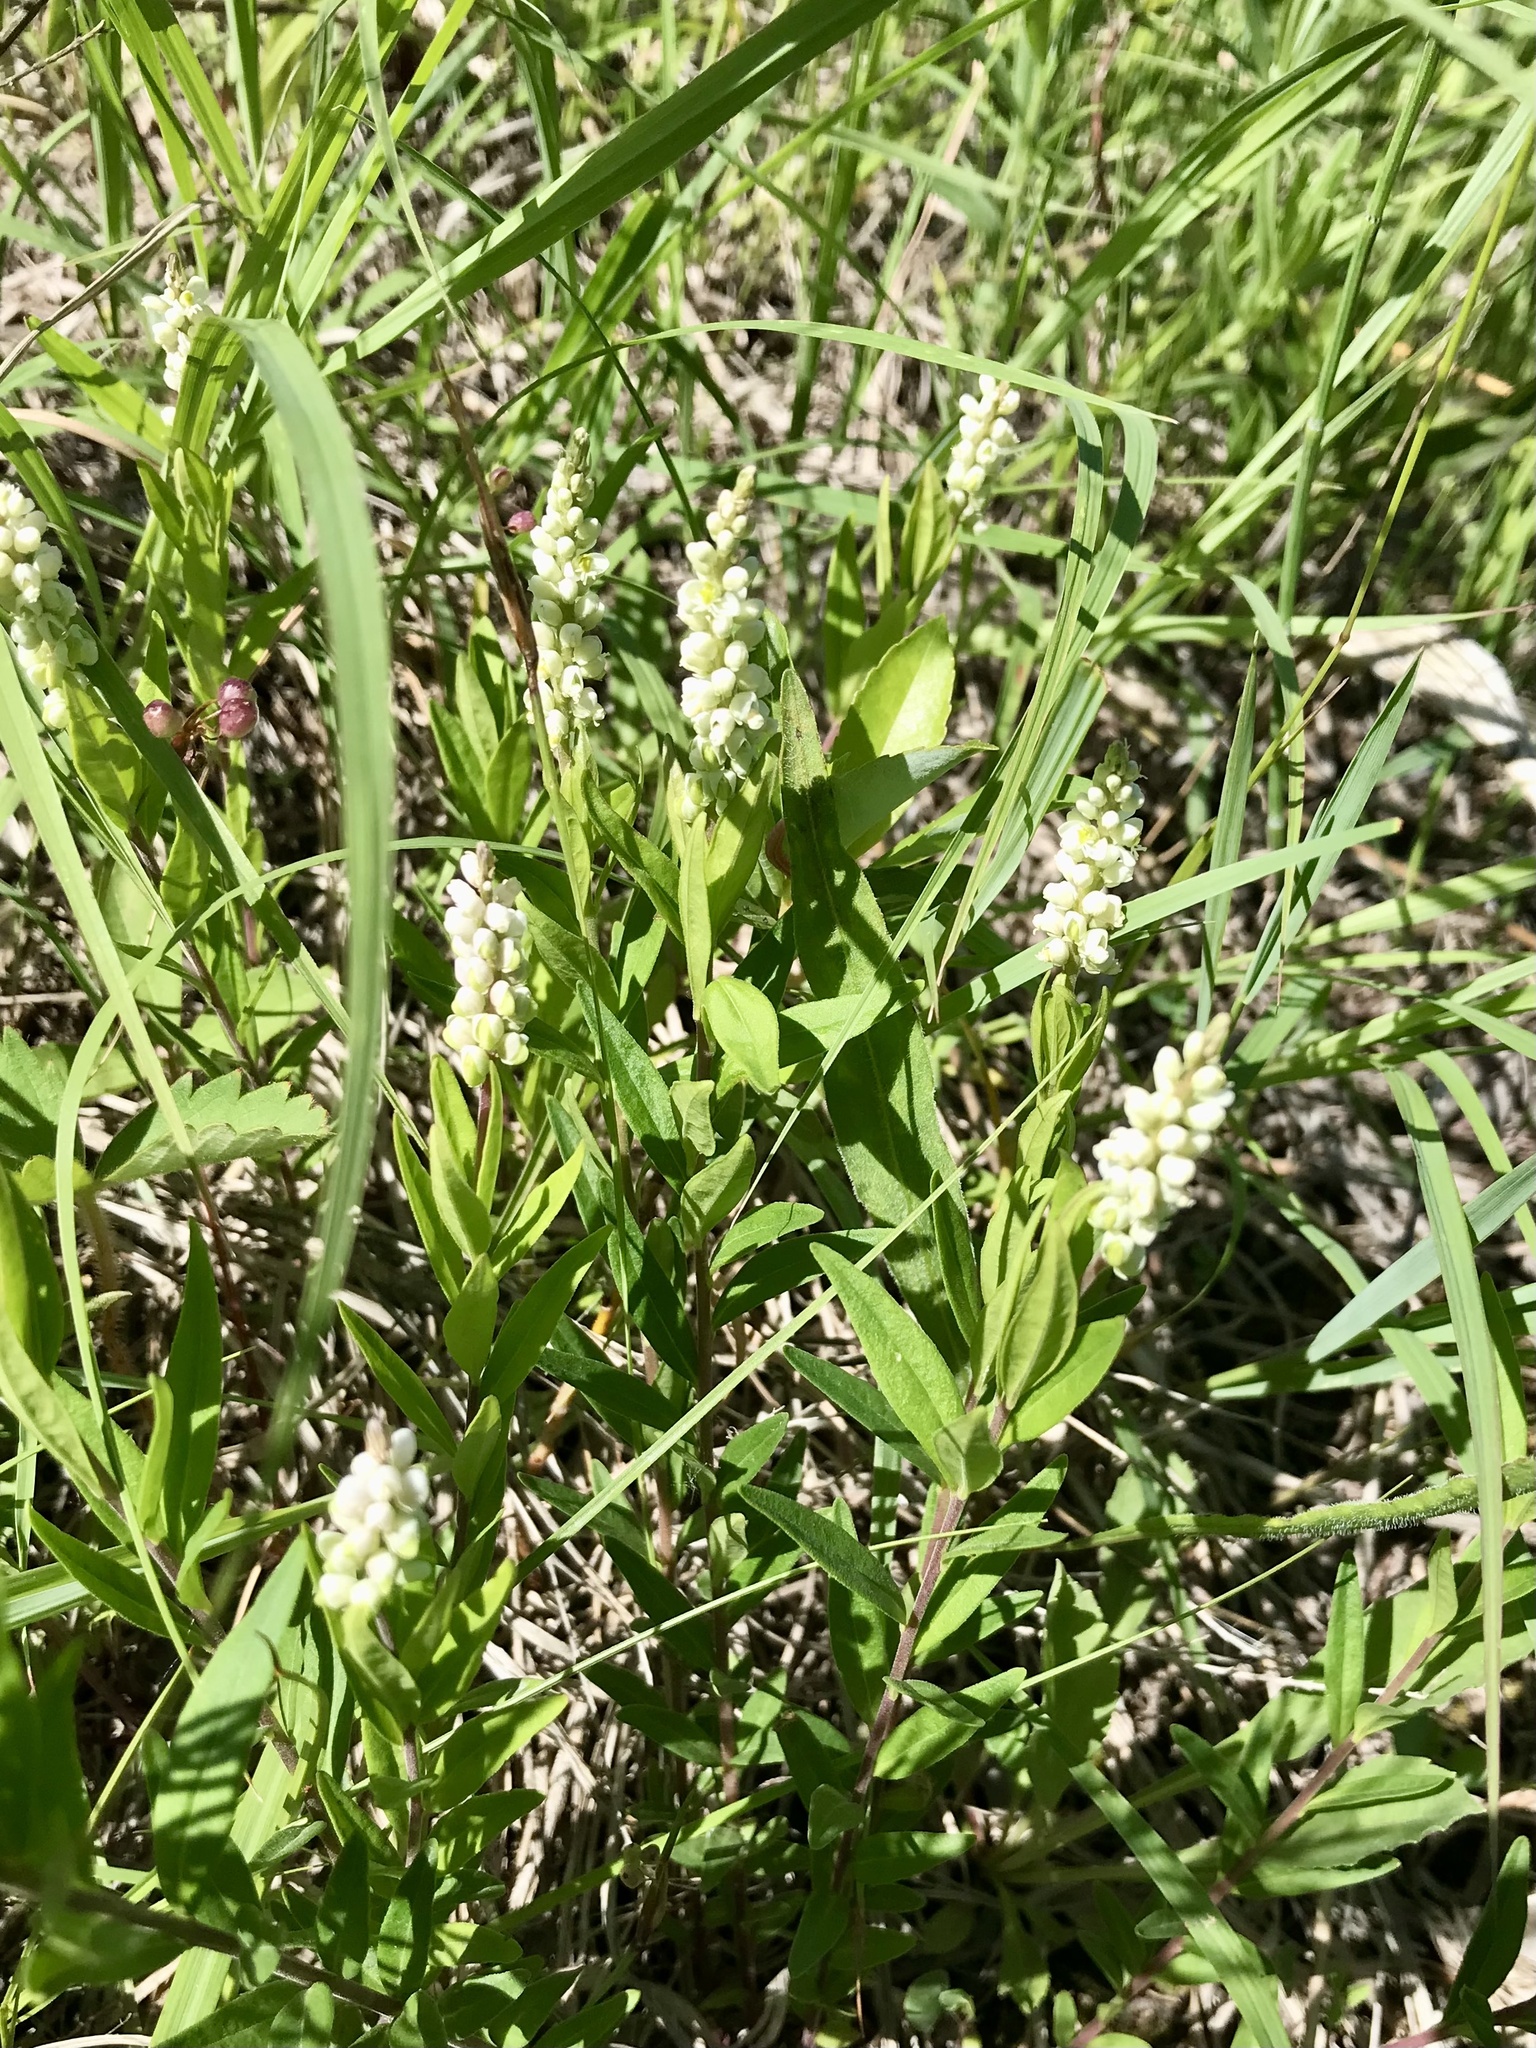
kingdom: Plantae
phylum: Tracheophyta
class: Magnoliopsida
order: Fabales
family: Polygalaceae
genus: Polygala
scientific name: Polygala senega
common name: Seneca snakeroot
